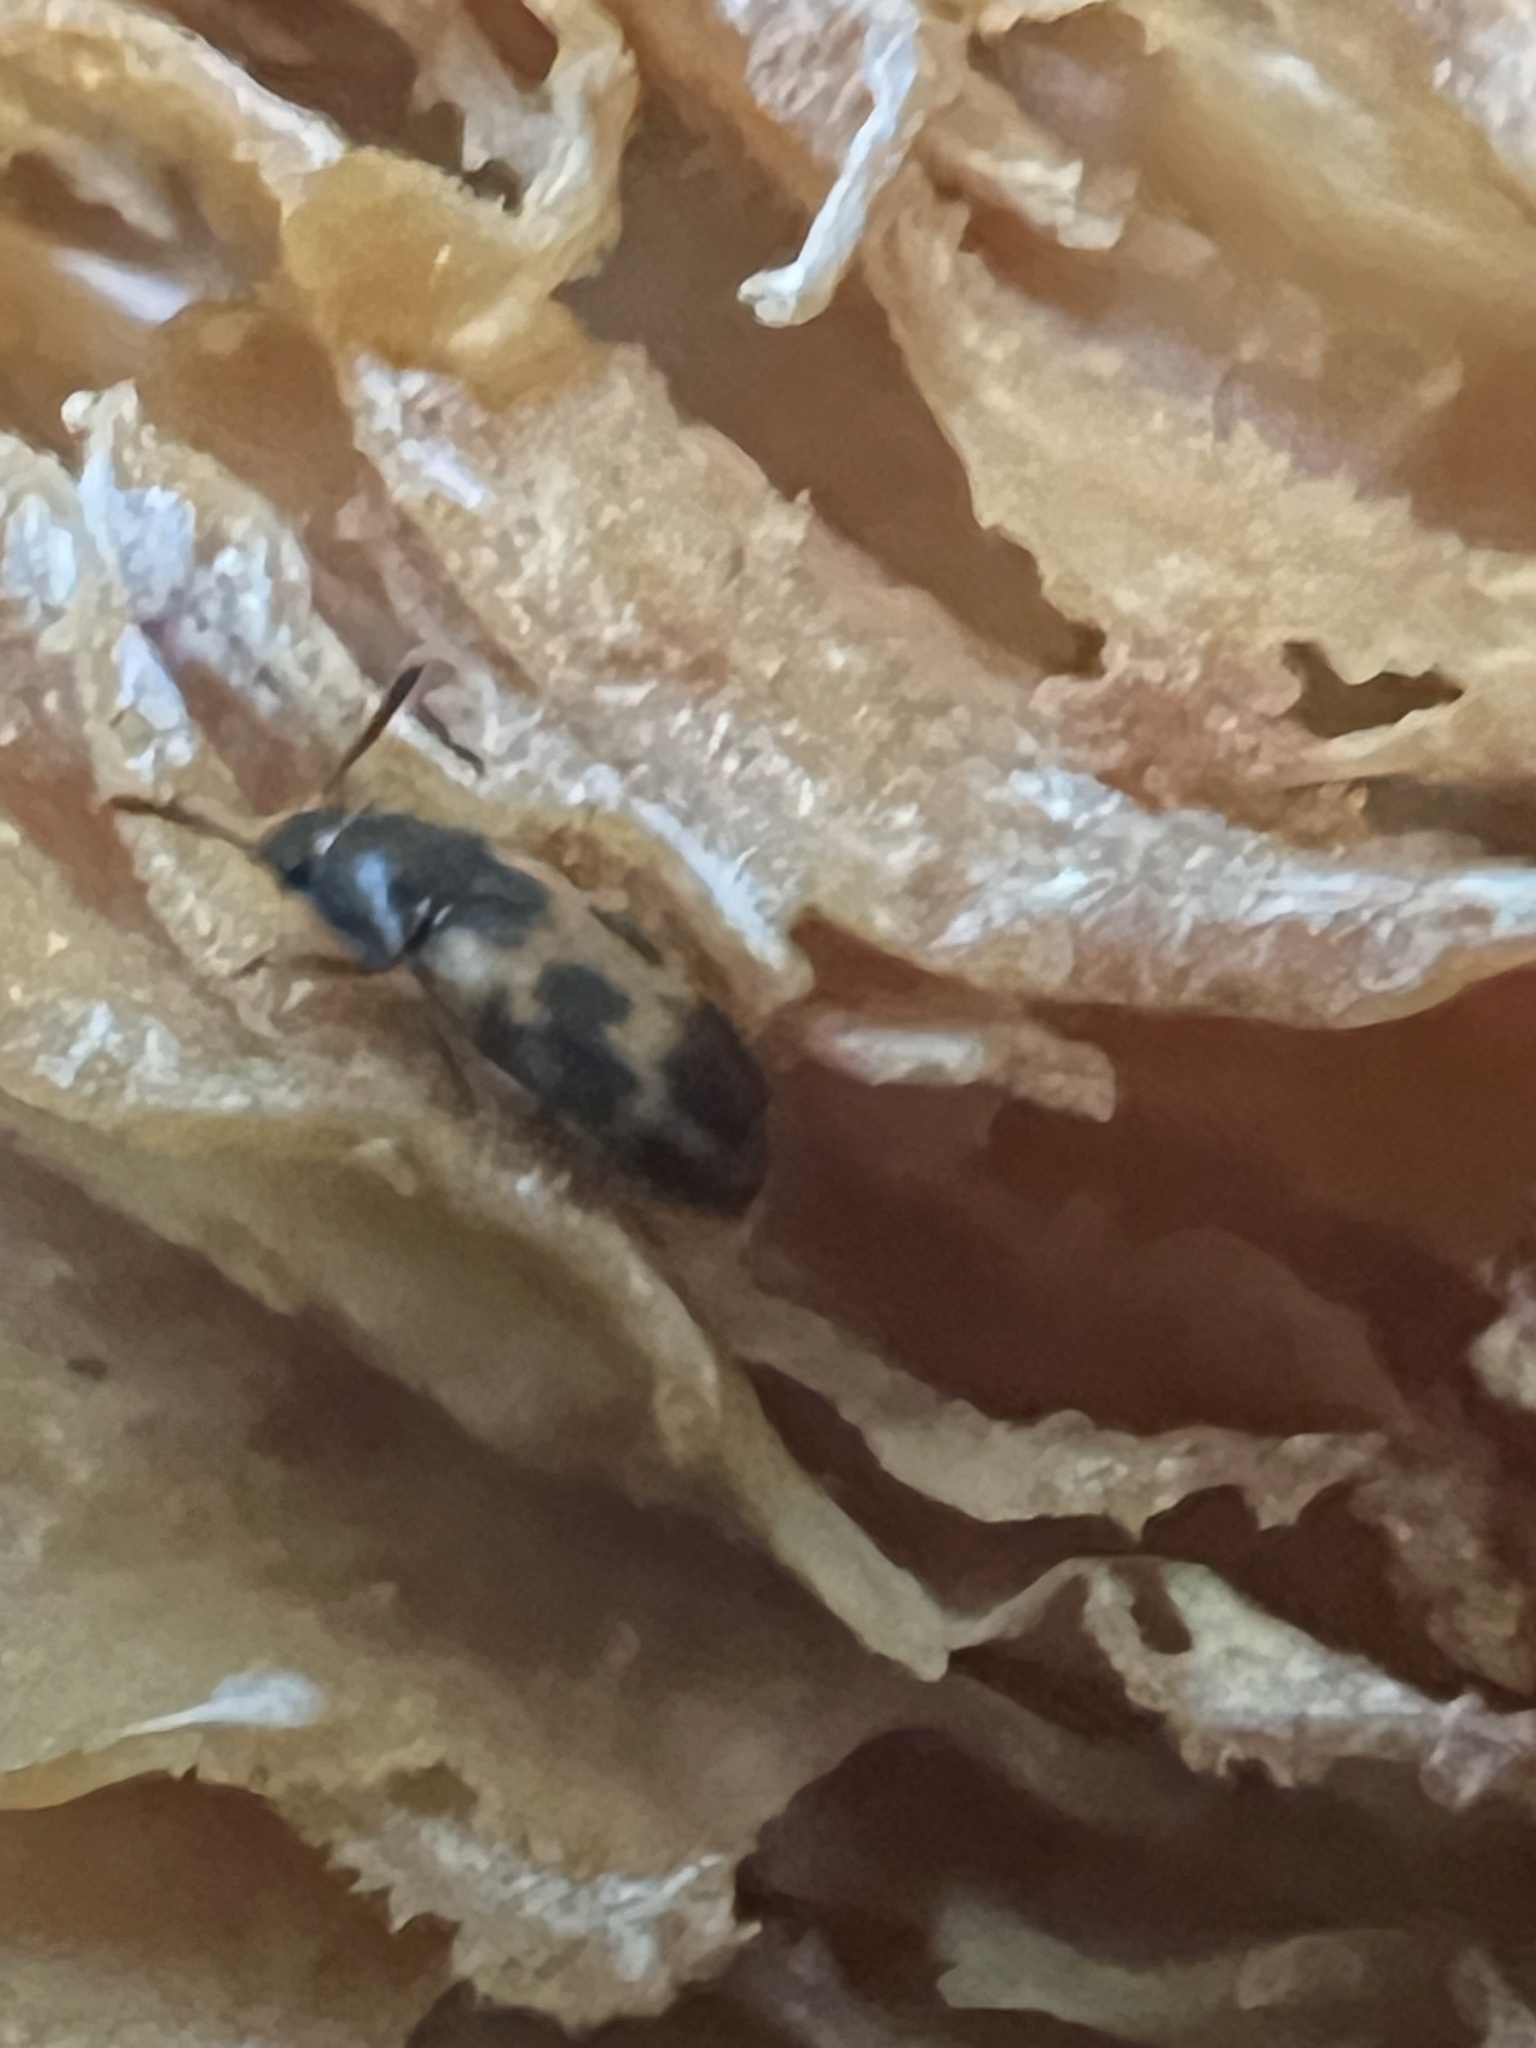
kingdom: Animalia
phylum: Arthropoda
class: Insecta
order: Coleoptera
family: Mycetophagidae
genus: Mycetophagus
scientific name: Mycetophagus flexuosus
